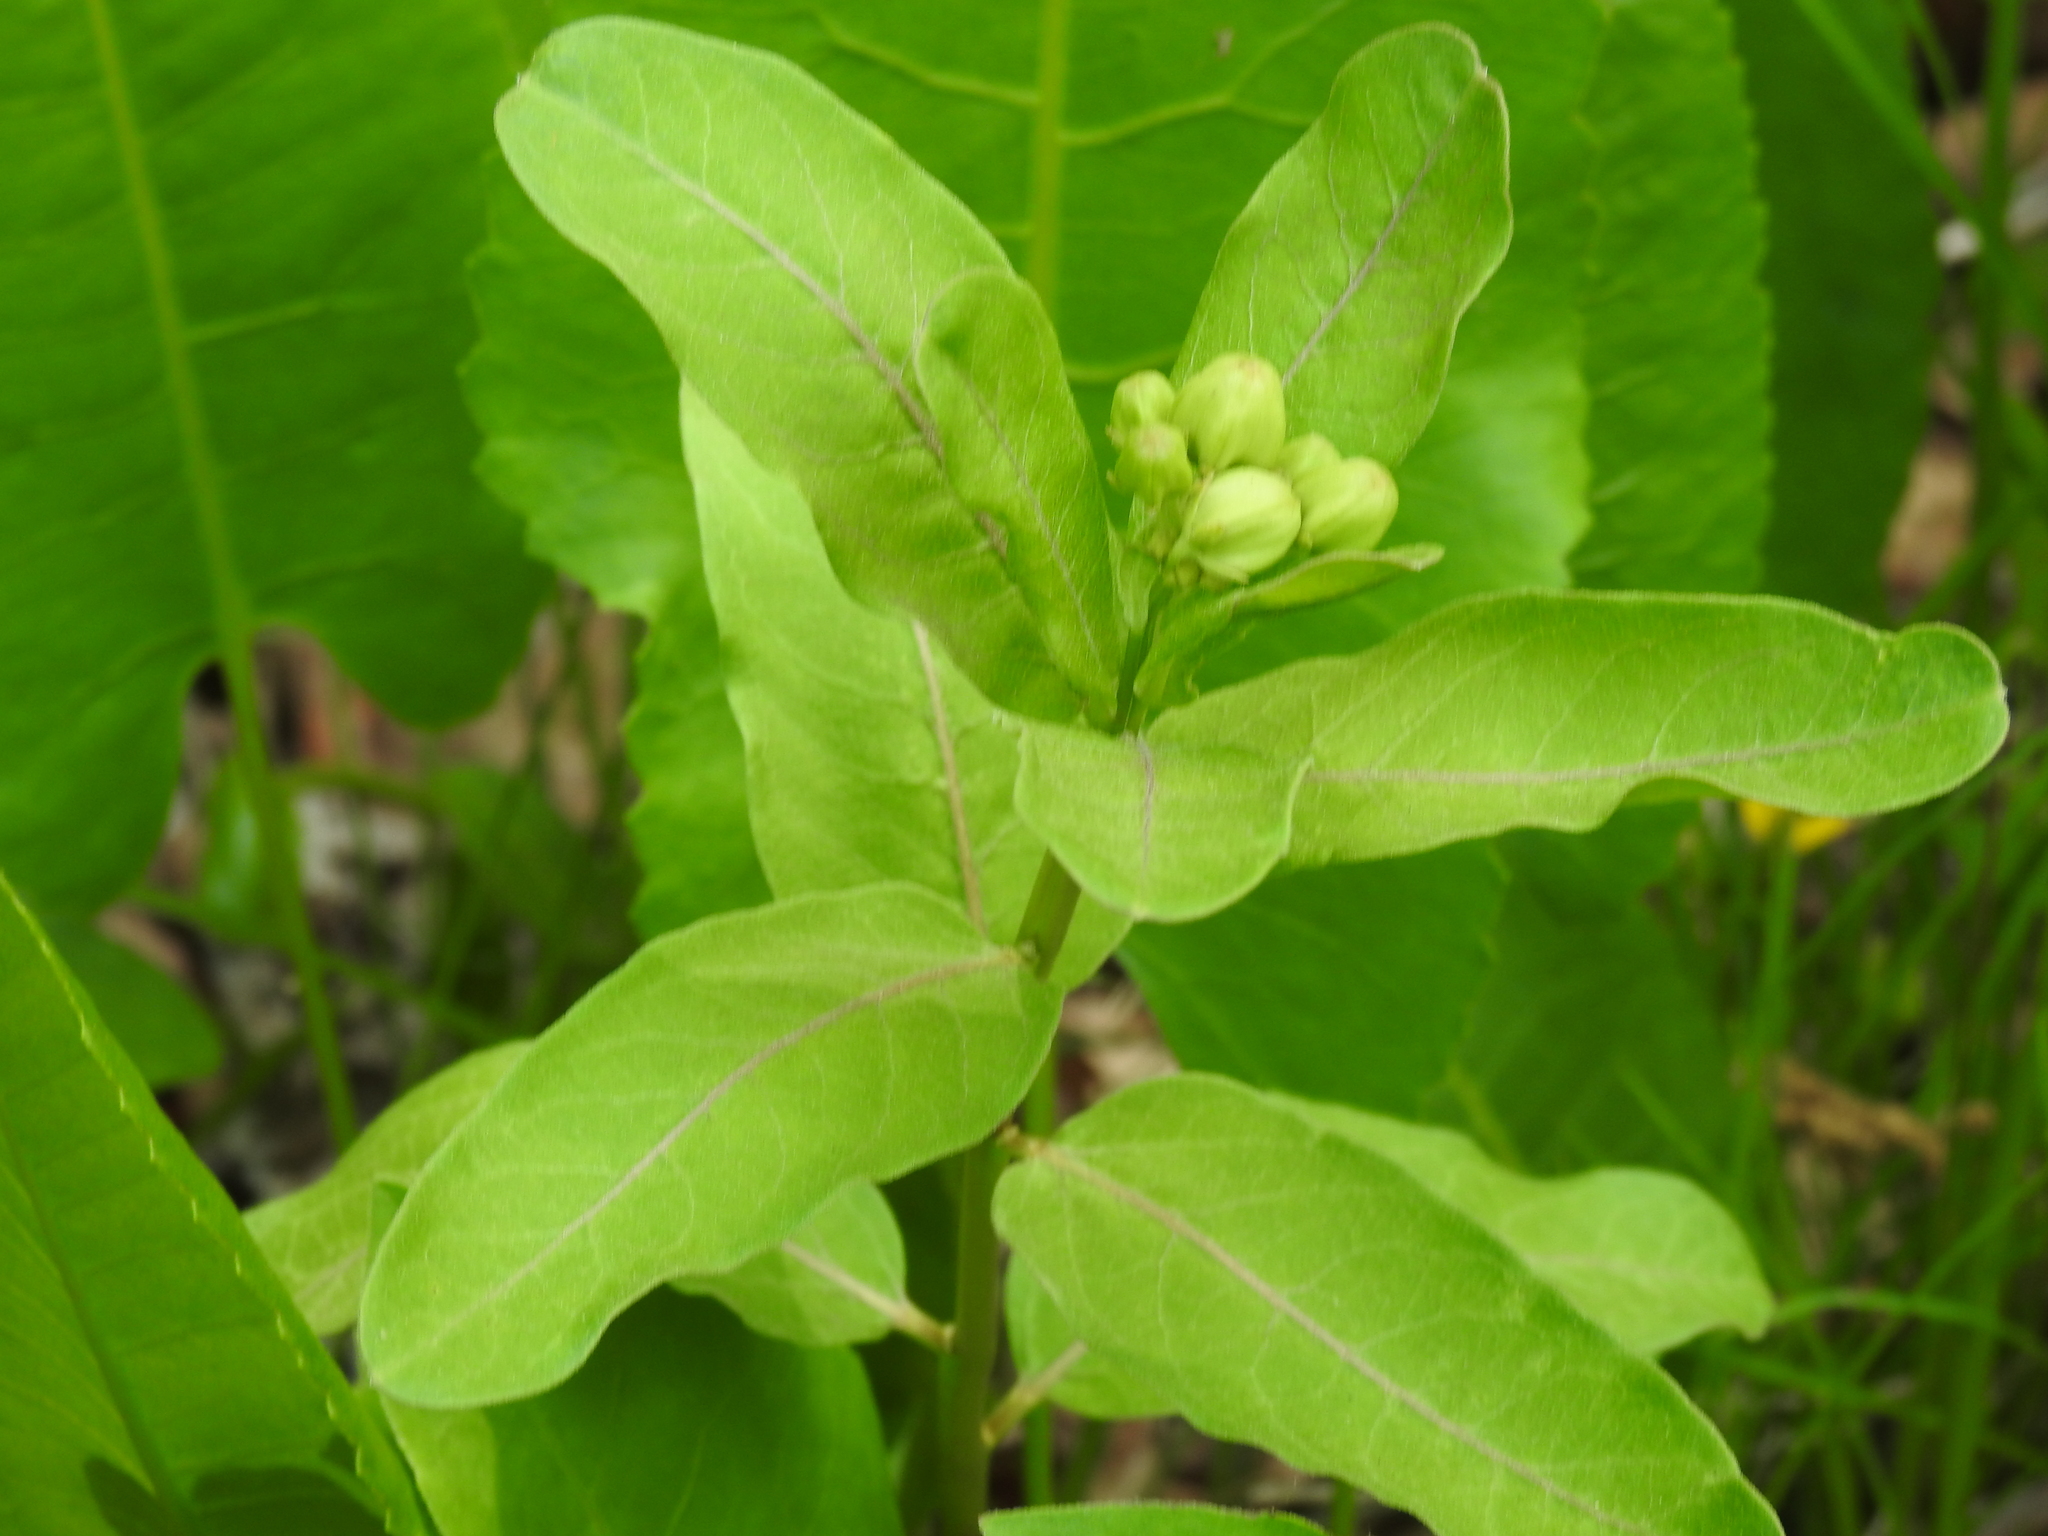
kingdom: Plantae
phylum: Tracheophyta
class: Magnoliopsida
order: Gentianales
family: Apocynaceae
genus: Asclepias
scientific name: Asclepias viridis
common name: Antelope-horns
